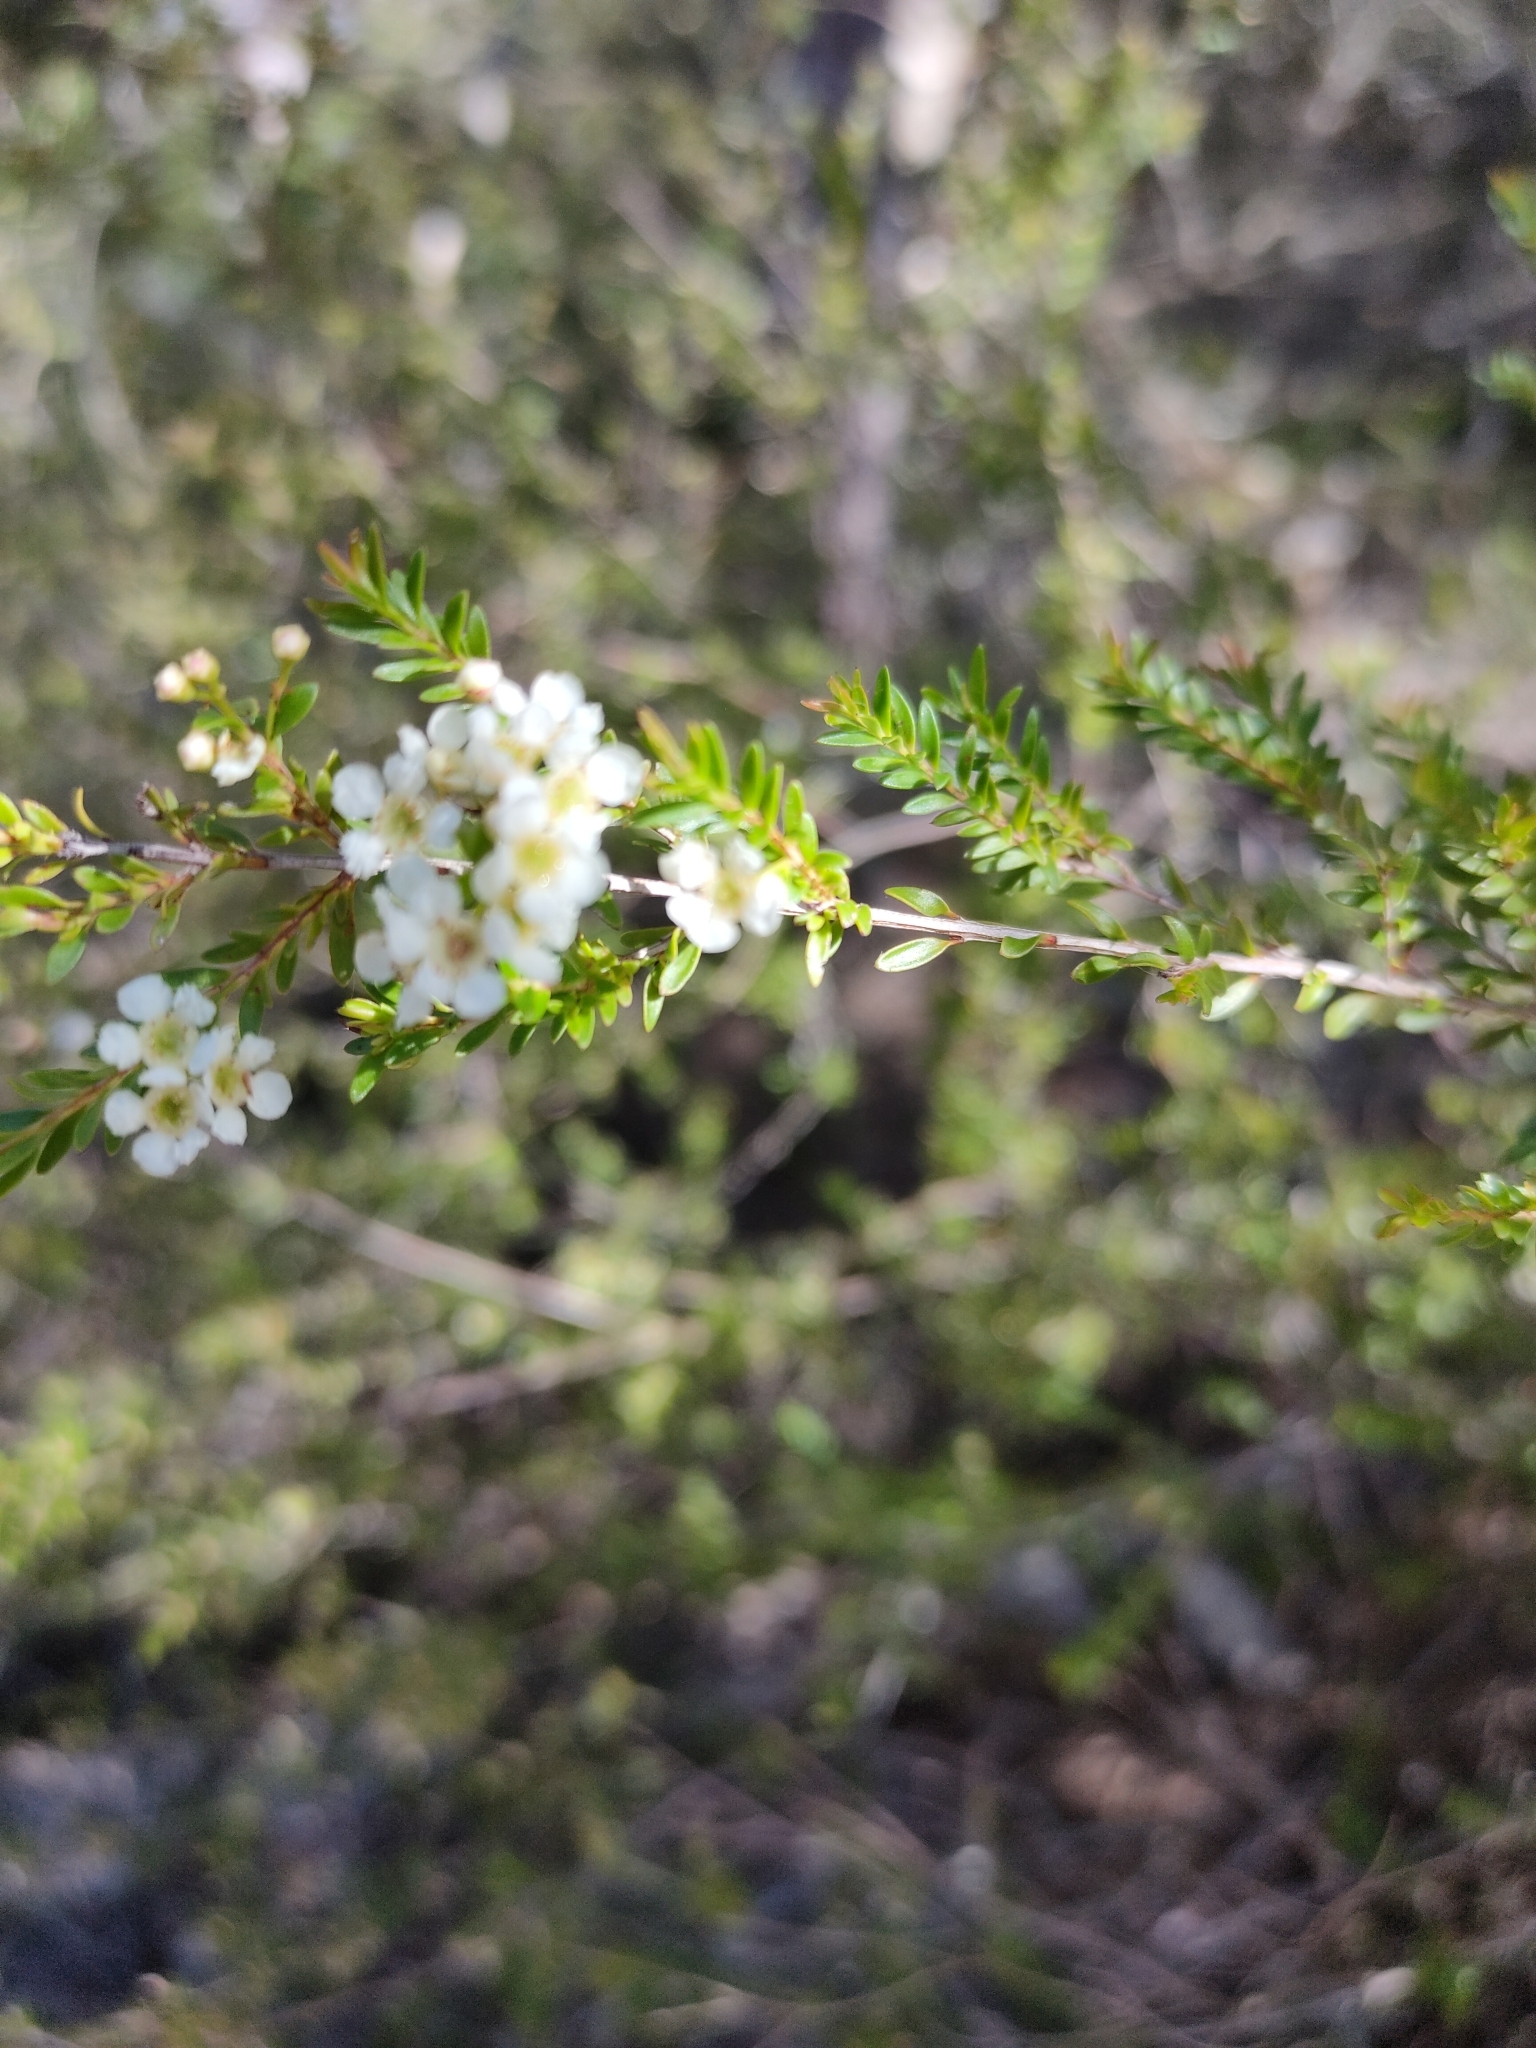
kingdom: Plantae
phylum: Tracheophyta
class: Magnoliopsida
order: Myrtales
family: Myrtaceae
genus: Sannantha
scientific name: Sannantha bidwillii
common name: Tall baeckea
